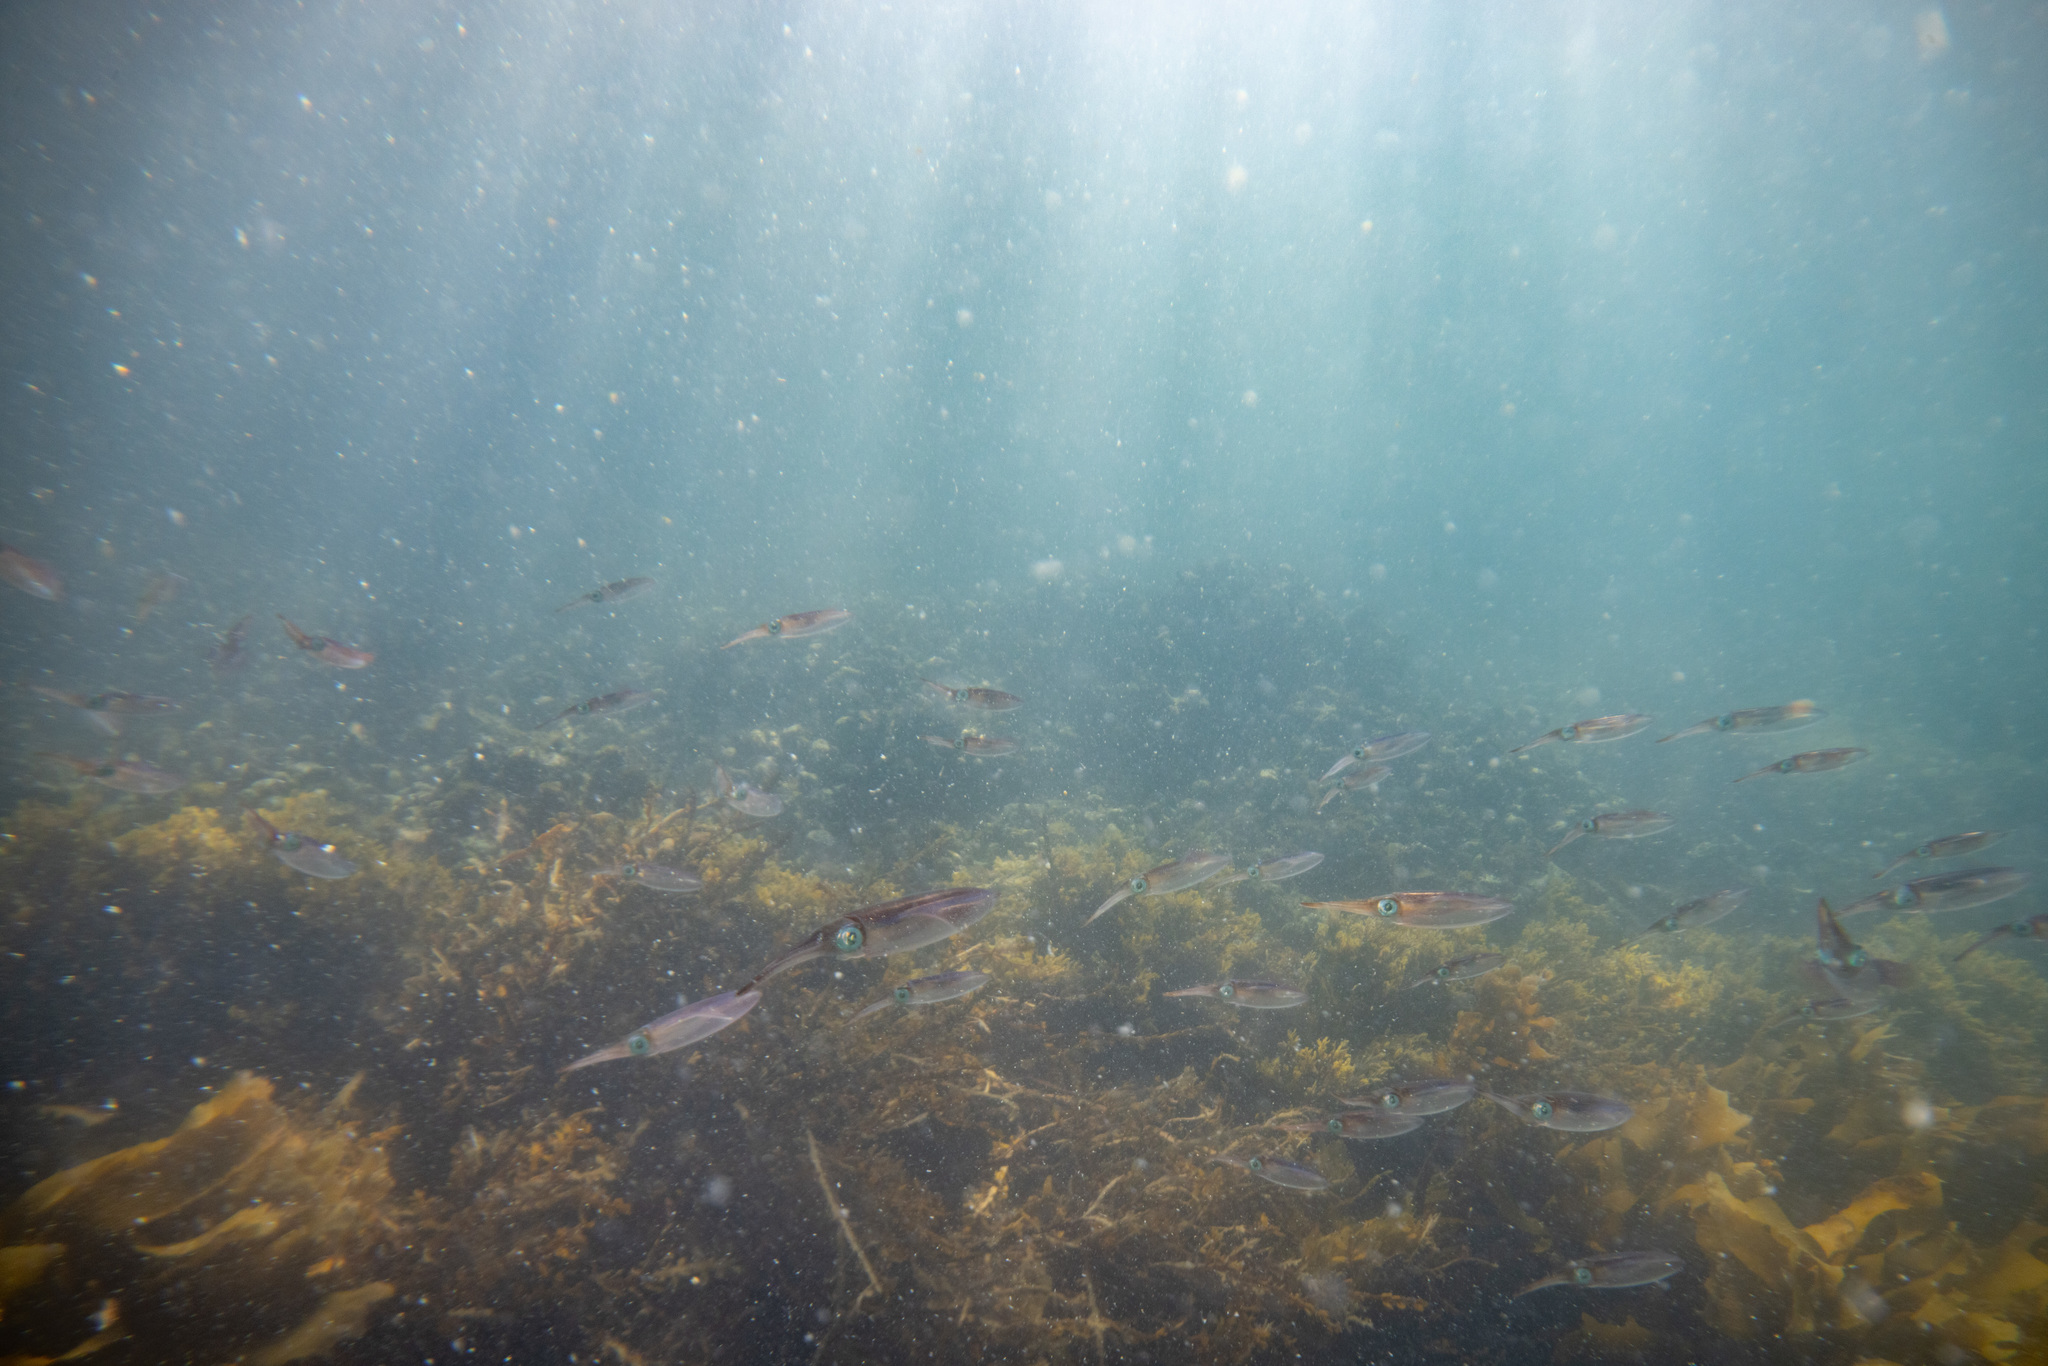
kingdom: Animalia
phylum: Mollusca
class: Cephalopoda
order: Myopsida
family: Loliginidae
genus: Sepioteuthis
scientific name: Sepioteuthis australis
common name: Southern reef squid
